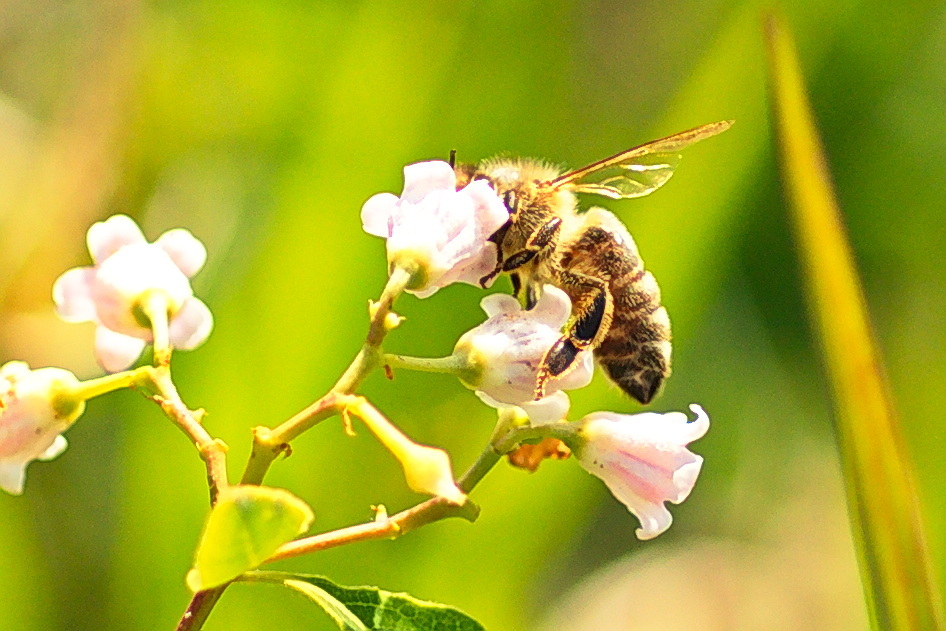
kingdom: Animalia
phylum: Arthropoda
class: Insecta
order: Hymenoptera
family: Apidae
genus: Apis
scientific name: Apis mellifera
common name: Honey bee
